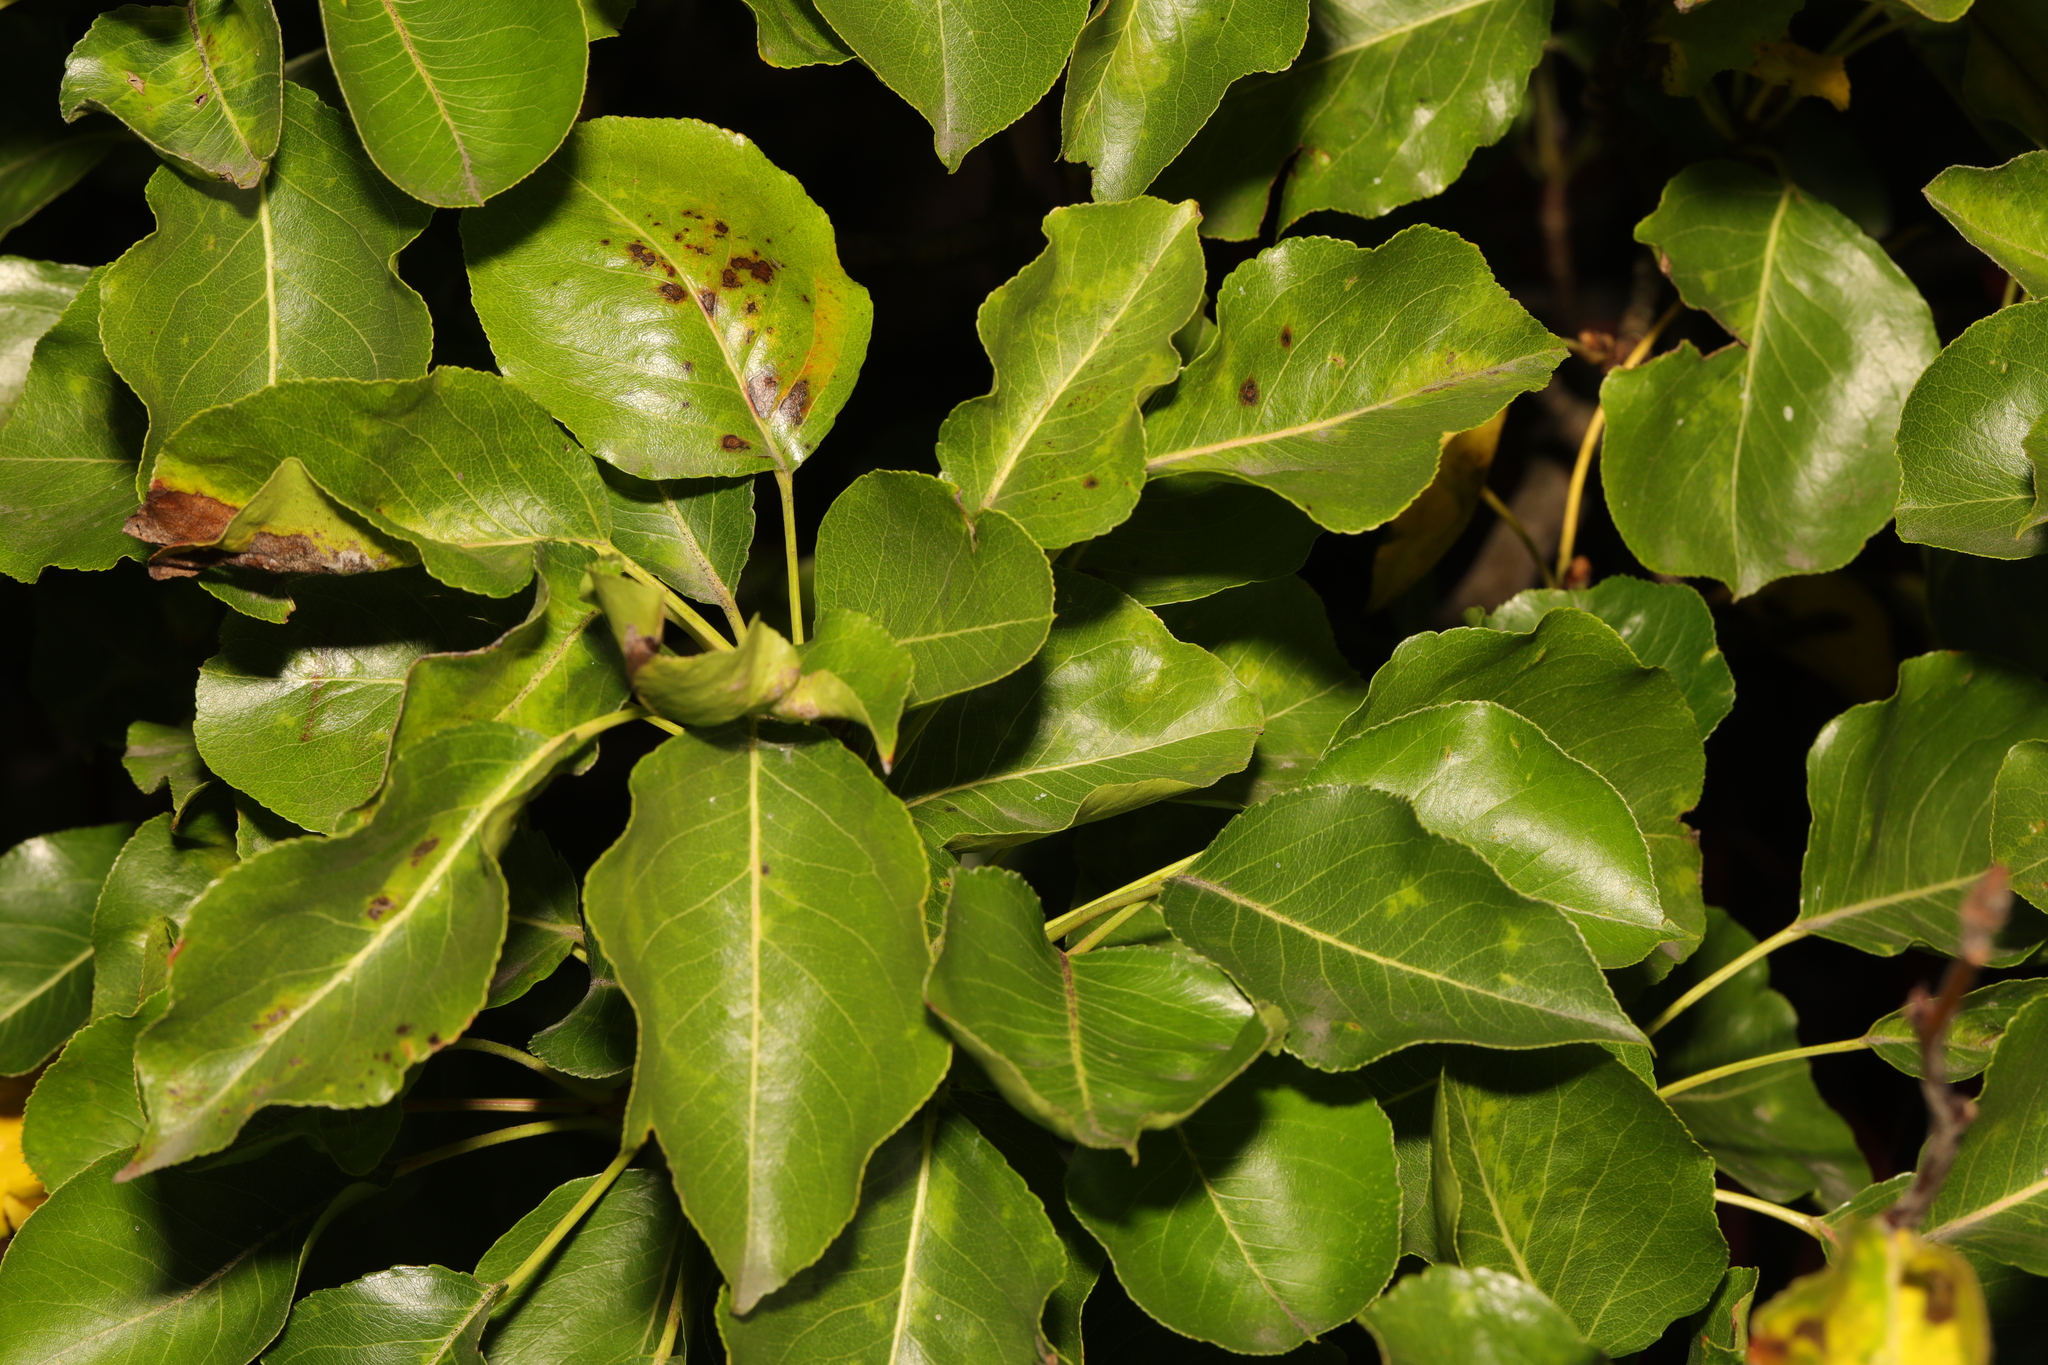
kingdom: Plantae
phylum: Tracheophyta
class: Magnoliopsida
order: Rosales
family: Rosaceae
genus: Pyrus
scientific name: Pyrus communis
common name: Pear
